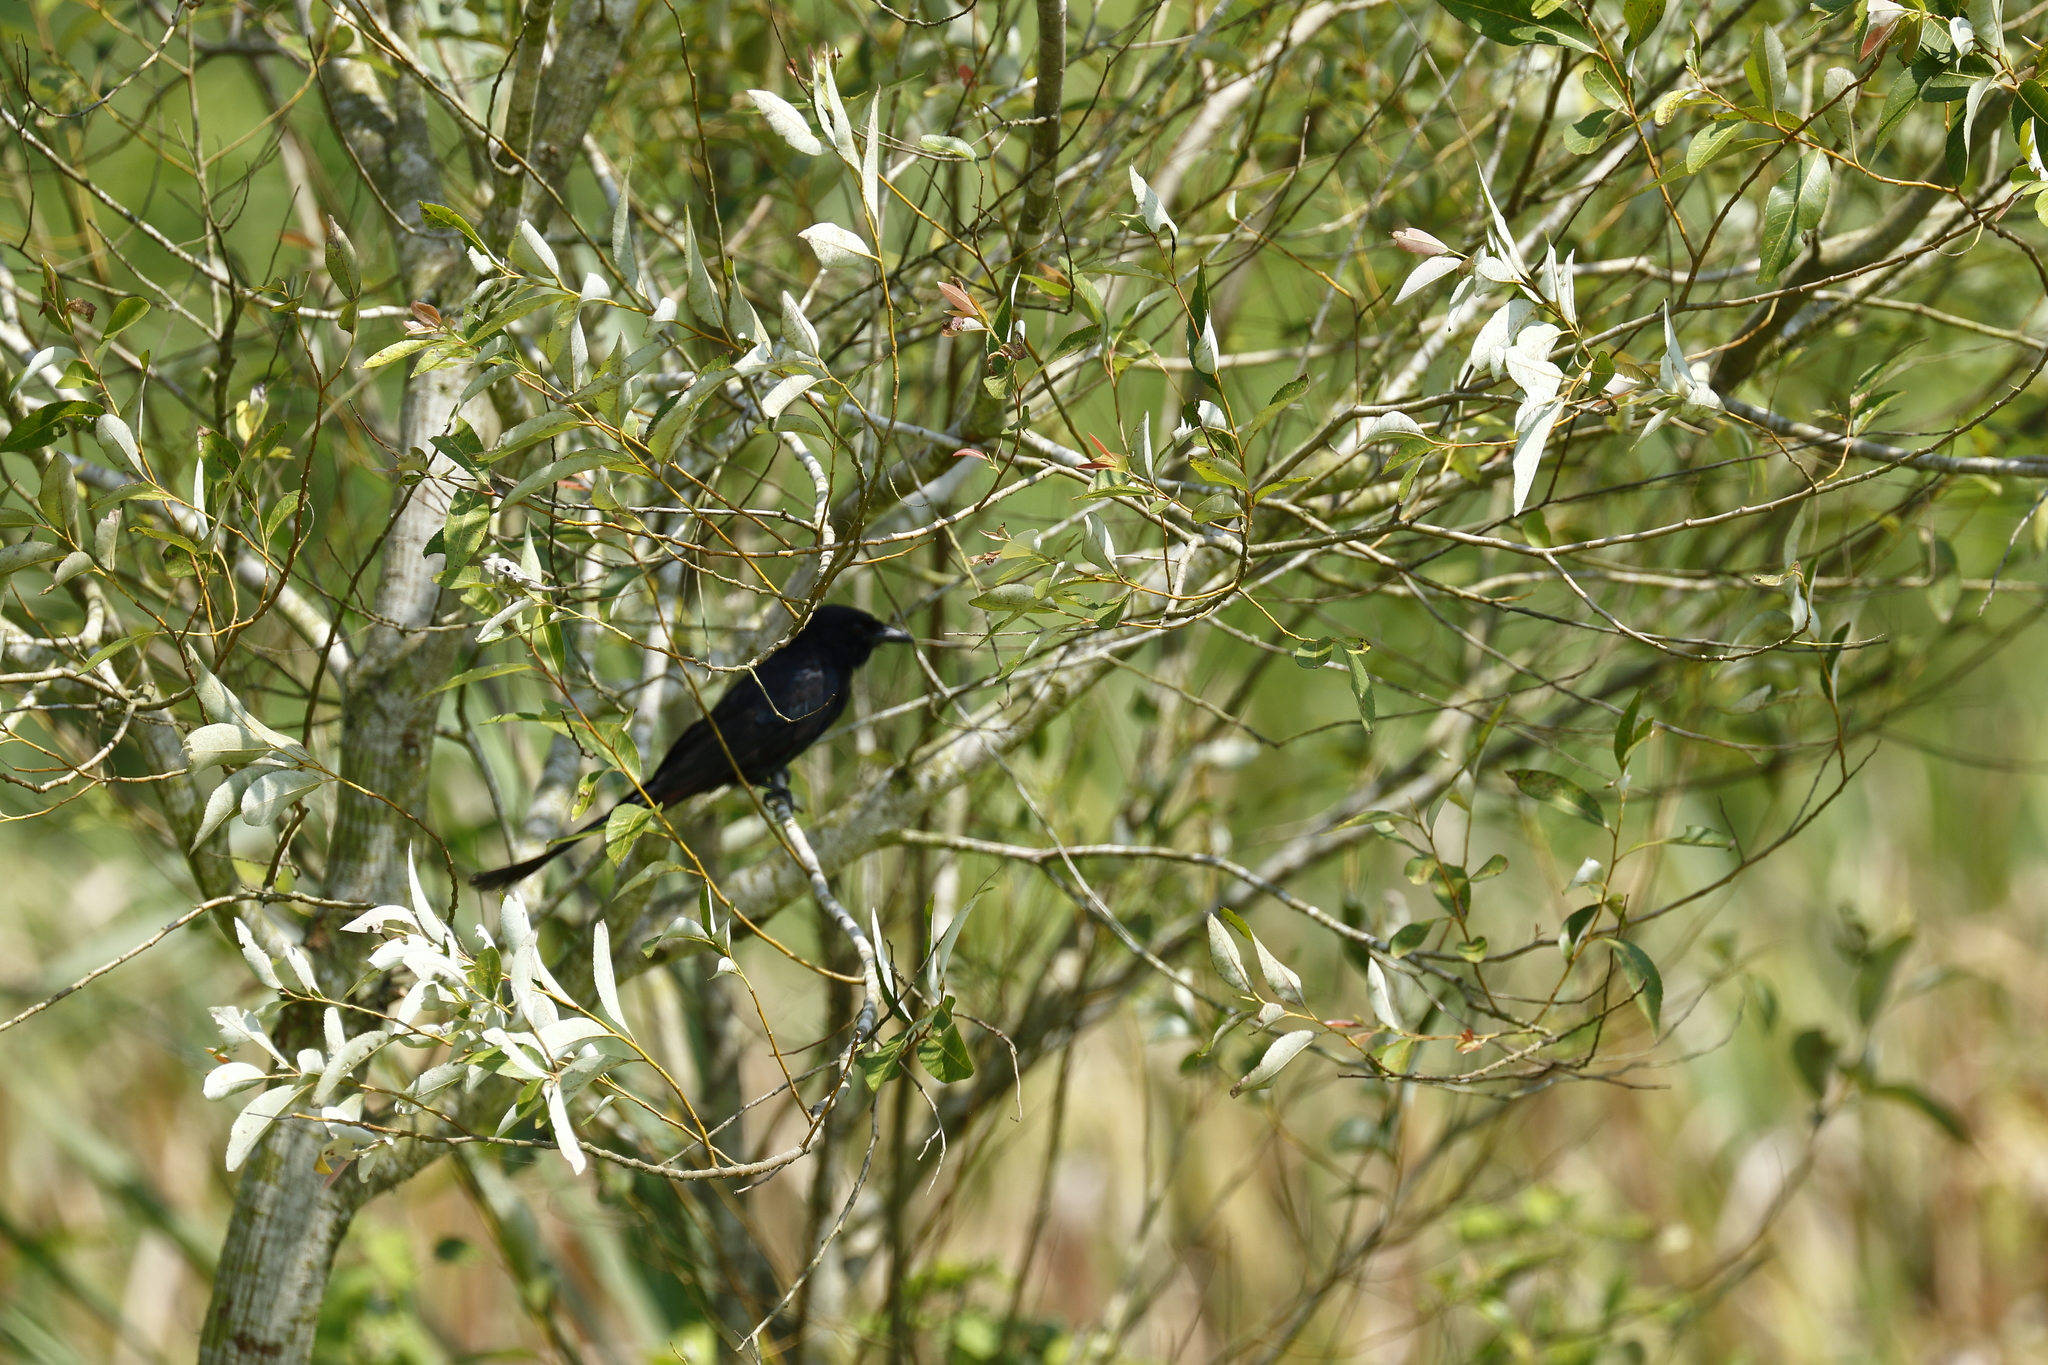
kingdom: Animalia
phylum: Chordata
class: Aves
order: Passeriformes
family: Dicruridae
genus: Dicrurus
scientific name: Dicrurus macrocercus
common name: Black drongo
